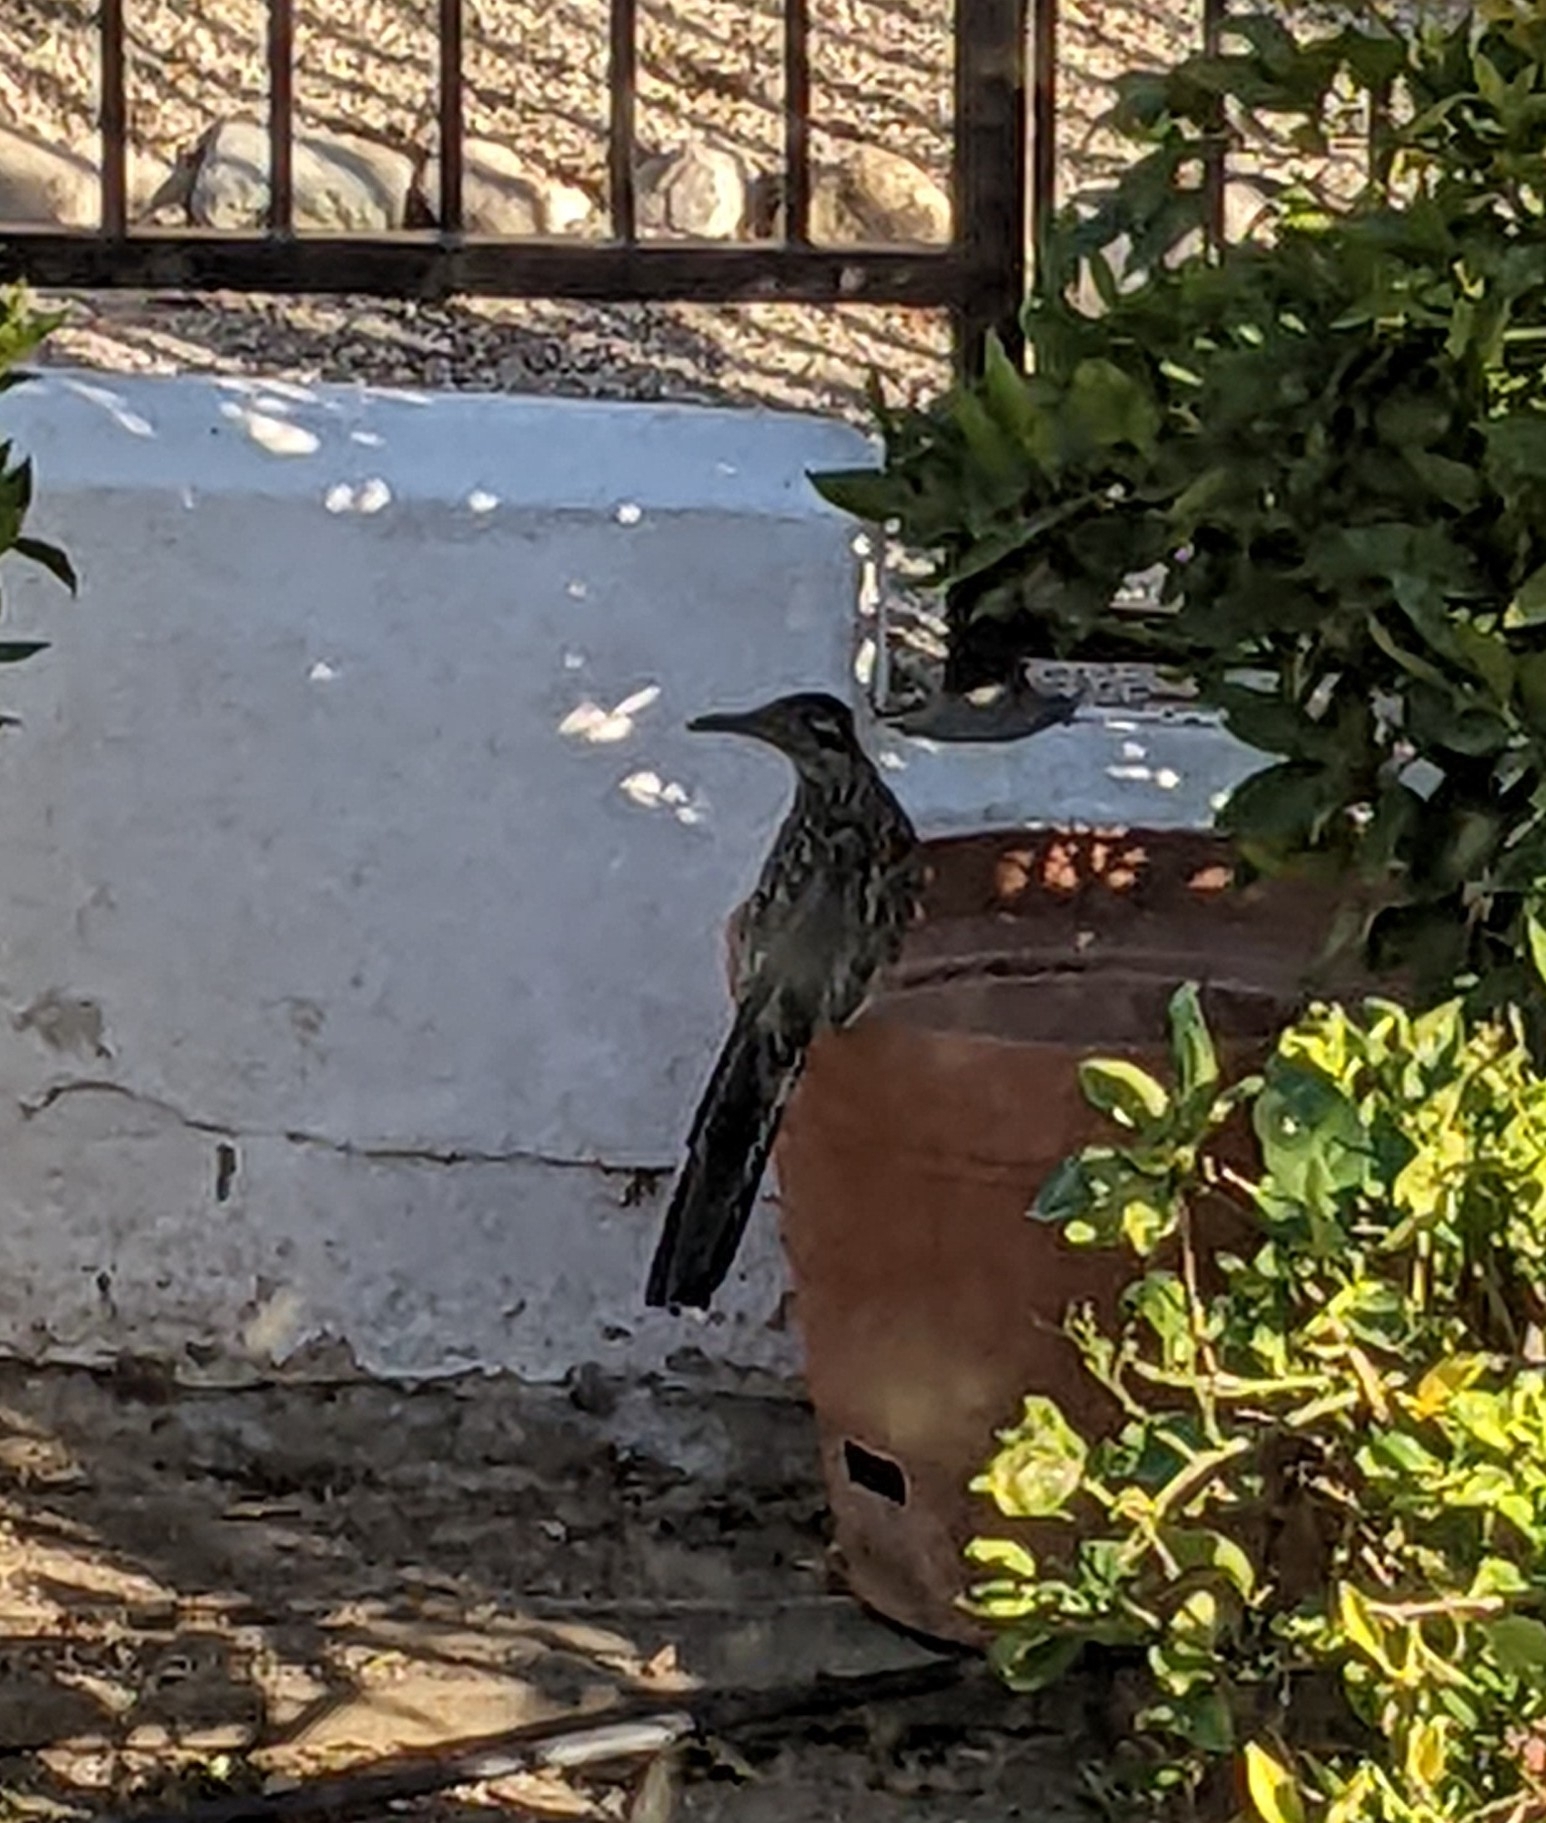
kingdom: Animalia
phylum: Chordata
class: Aves
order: Cuculiformes
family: Cuculidae
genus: Geococcyx
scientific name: Geococcyx californianus
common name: Greater roadrunner
